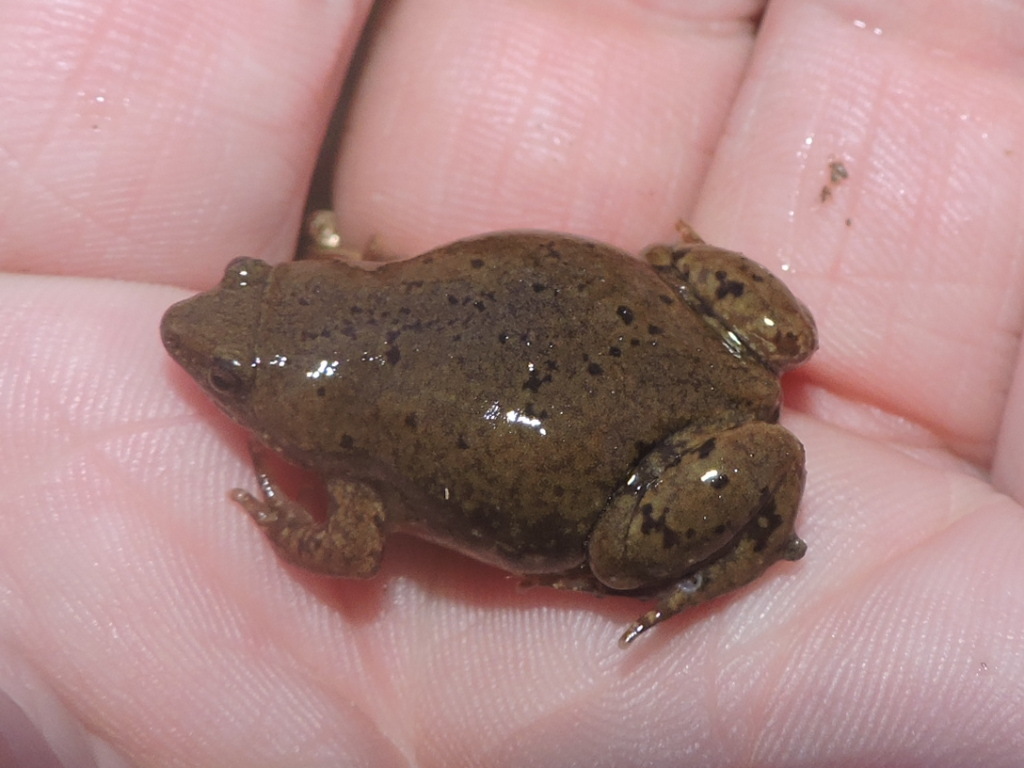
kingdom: Animalia
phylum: Chordata
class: Amphibia
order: Anura
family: Microhylidae
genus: Gastrophryne
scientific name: Gastrophryne olivacea
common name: Great plains narrow-mouthed toad
